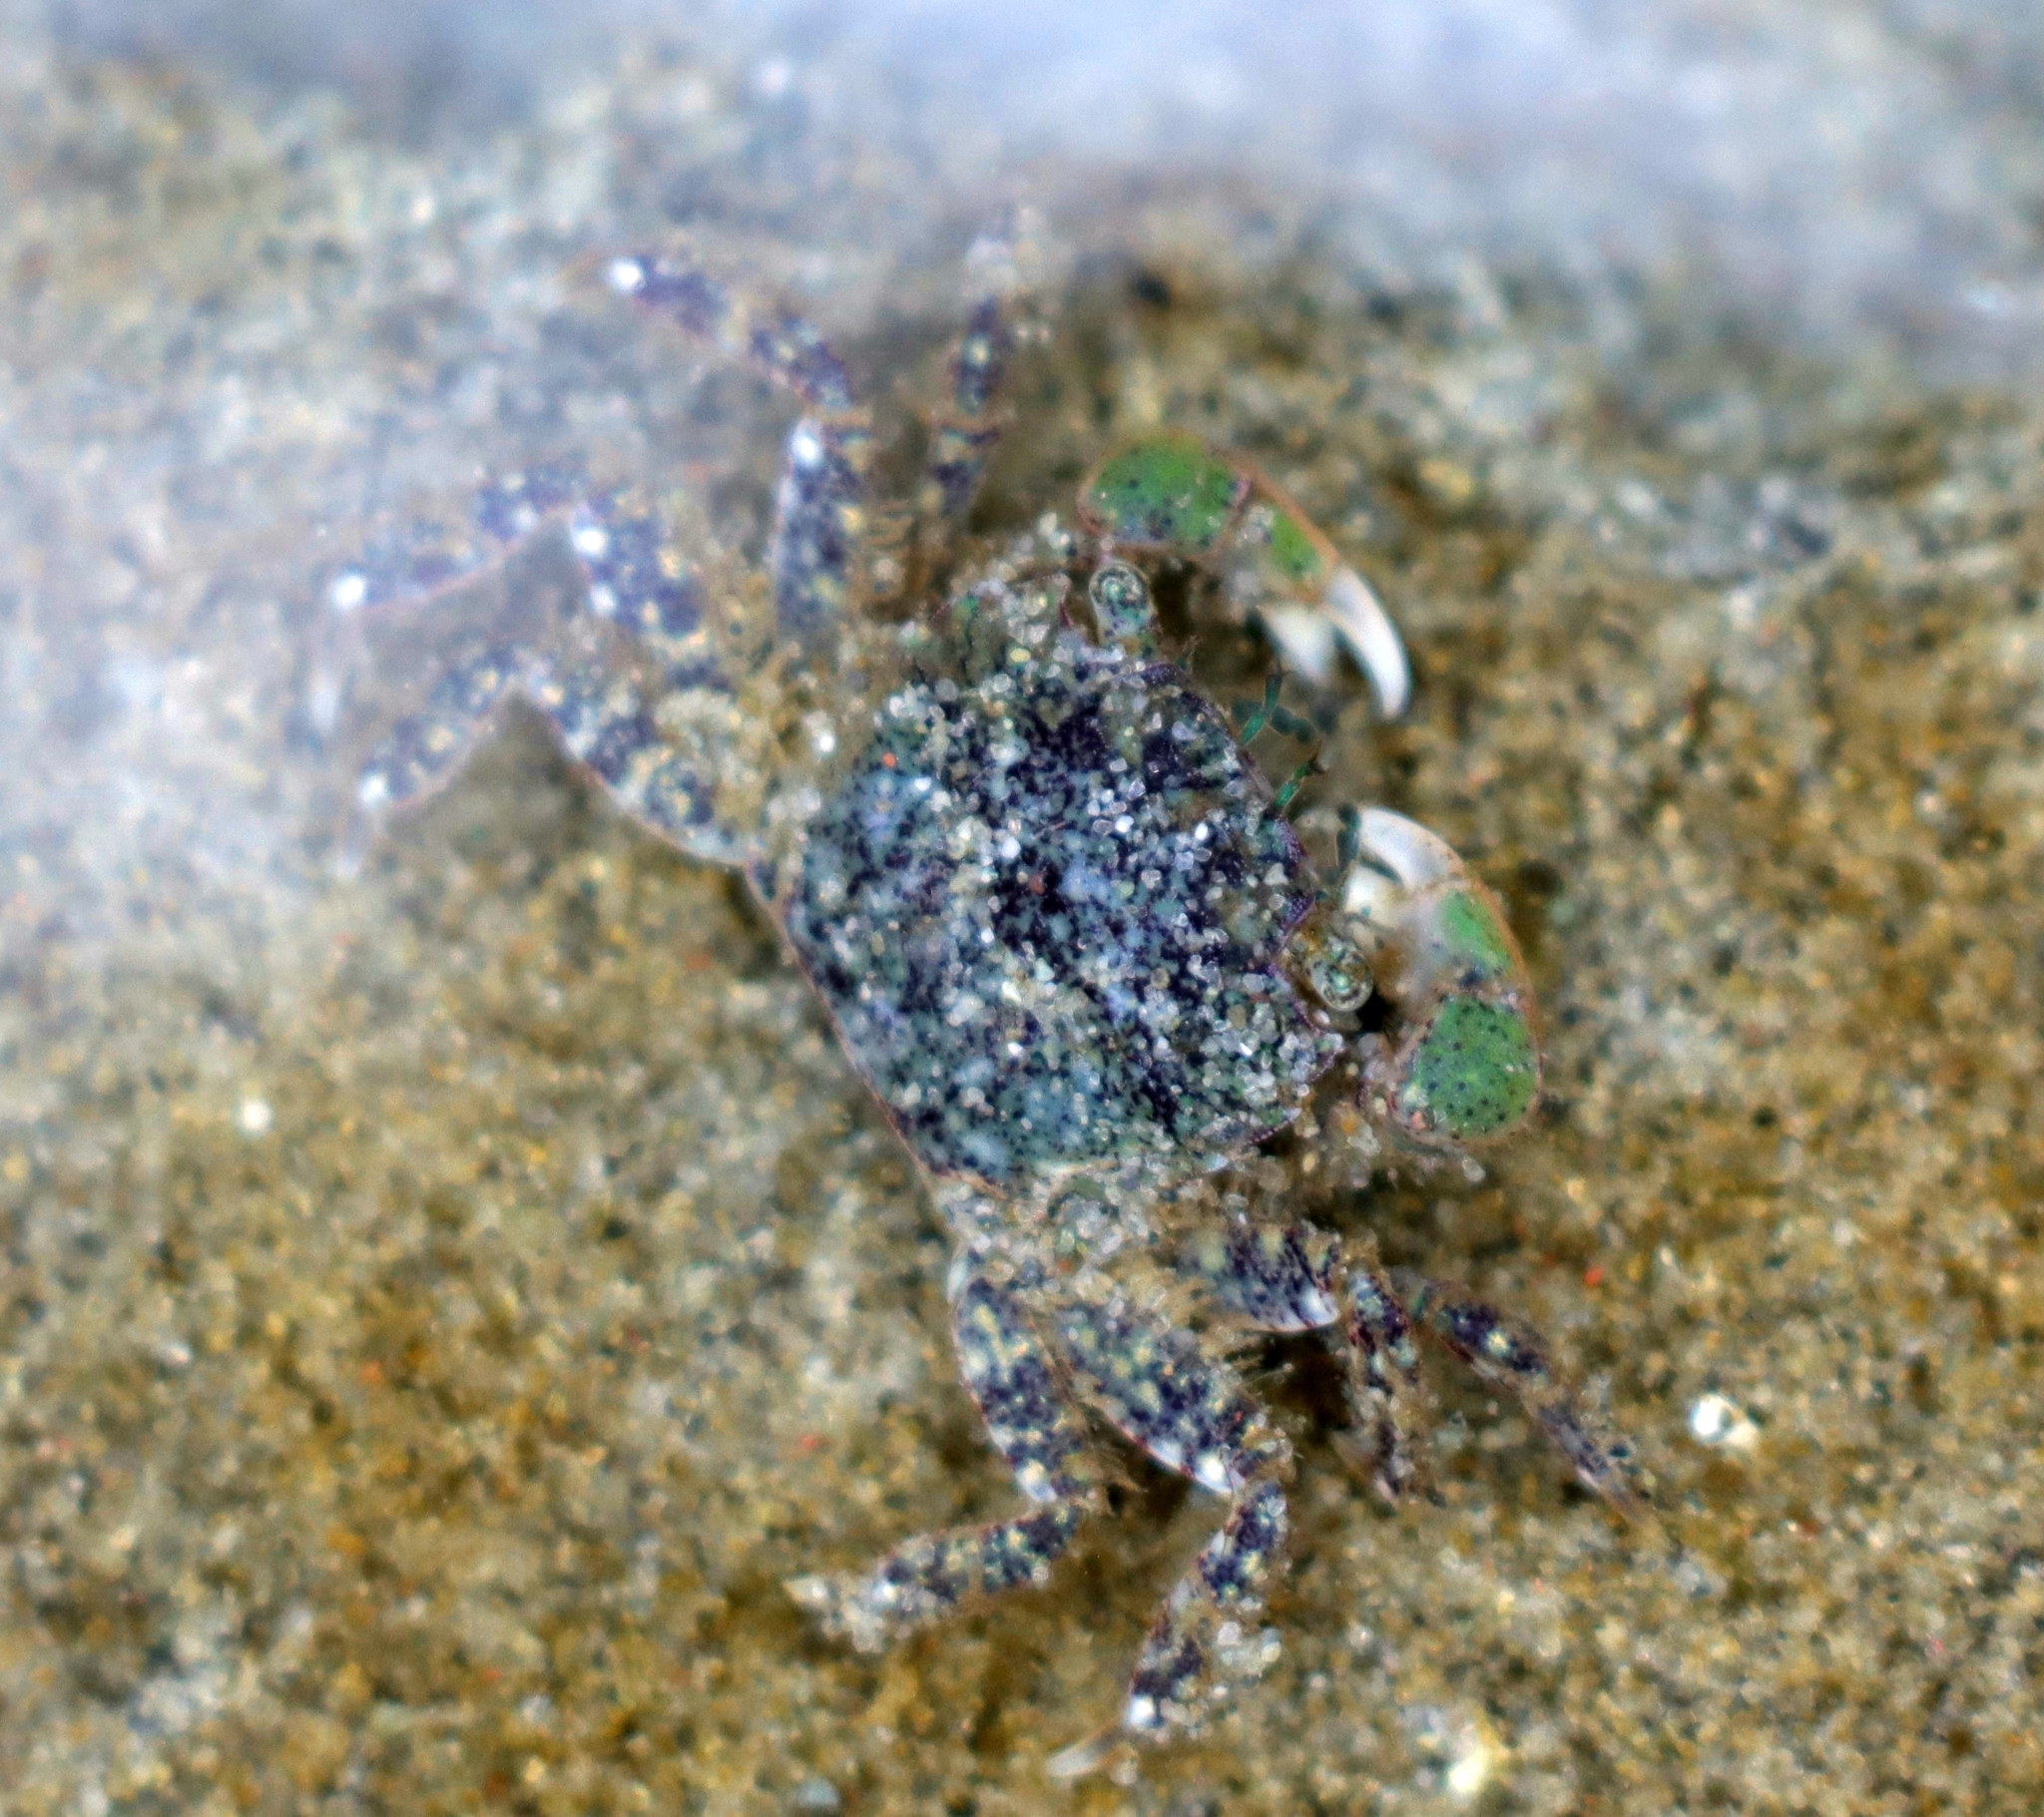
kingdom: Animalia
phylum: Arthropoda
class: Malacostraca
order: Decapoda
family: Varunidae
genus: Hemigrapsus
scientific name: Hemigrapsus oregonensis
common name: Yellow shore crab
